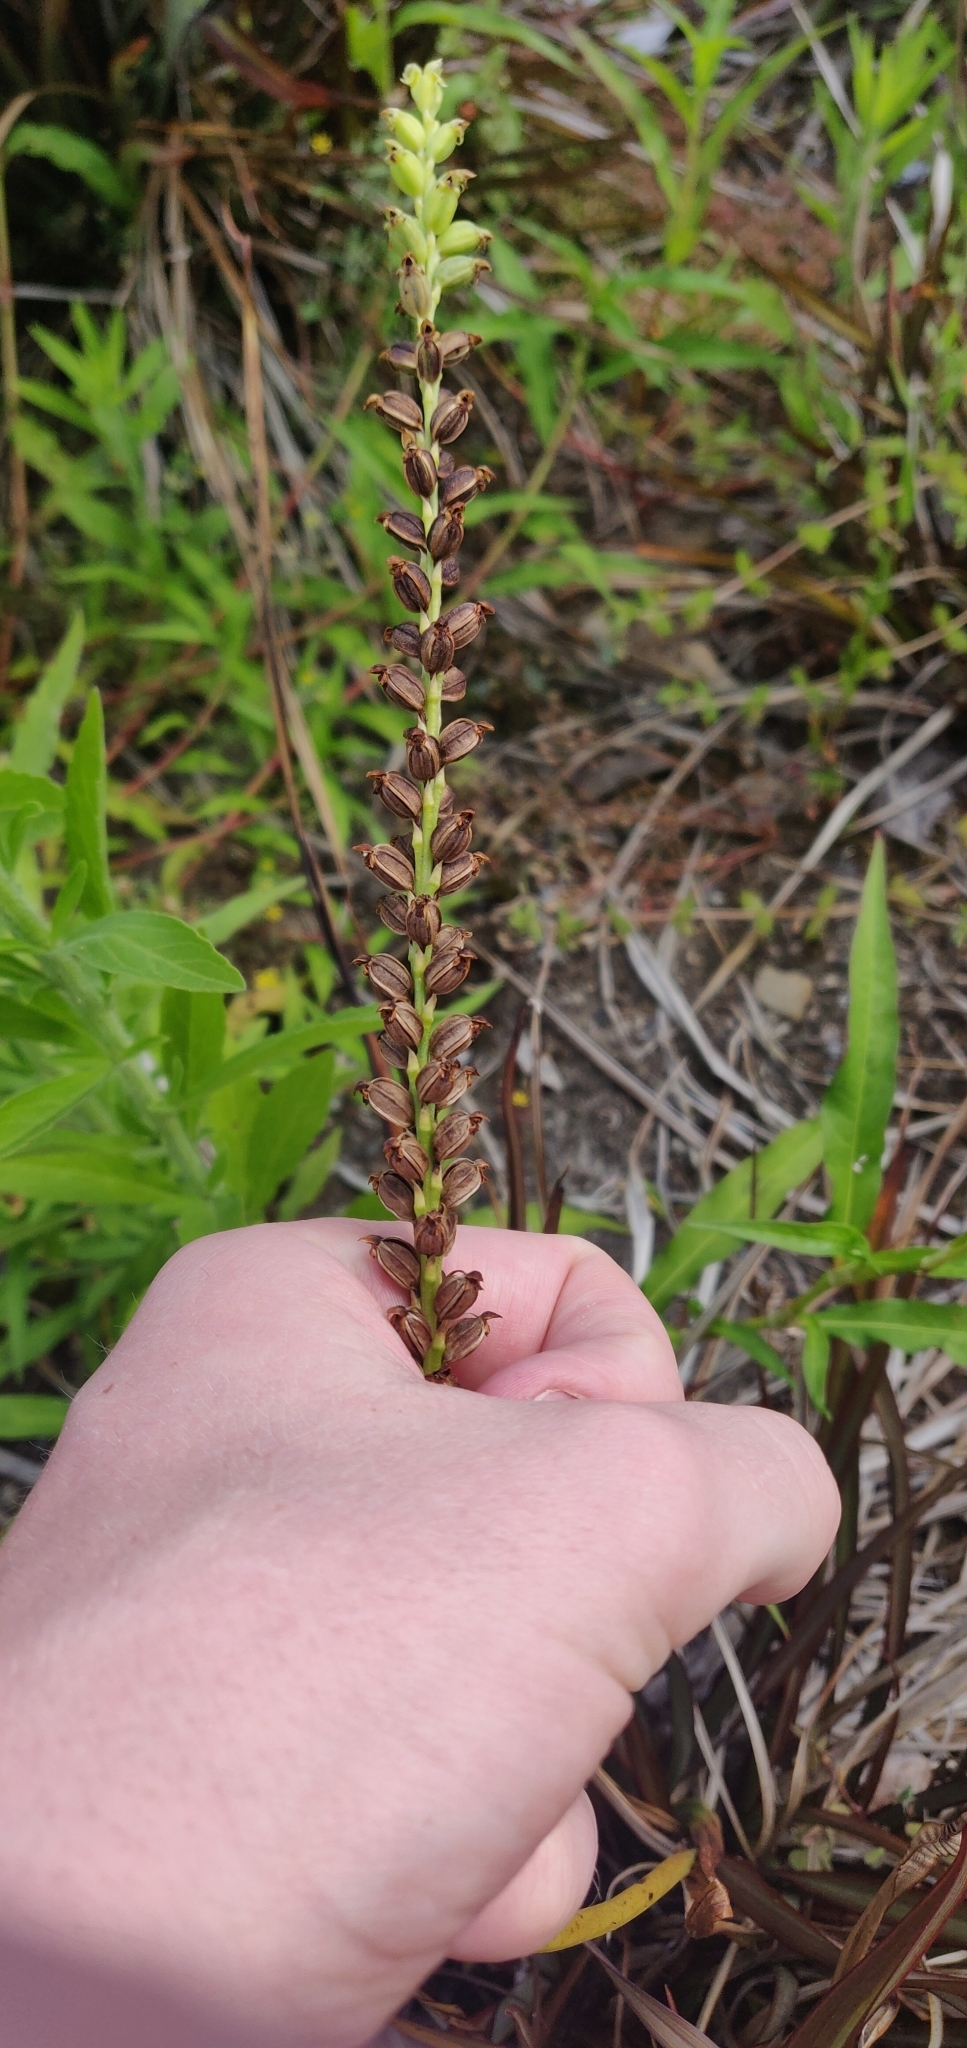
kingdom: Plantae
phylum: Tracheophyta
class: Liliopsida
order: Asparagales
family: Orchidaceae
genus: Microtis
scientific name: Microtis unifolia
